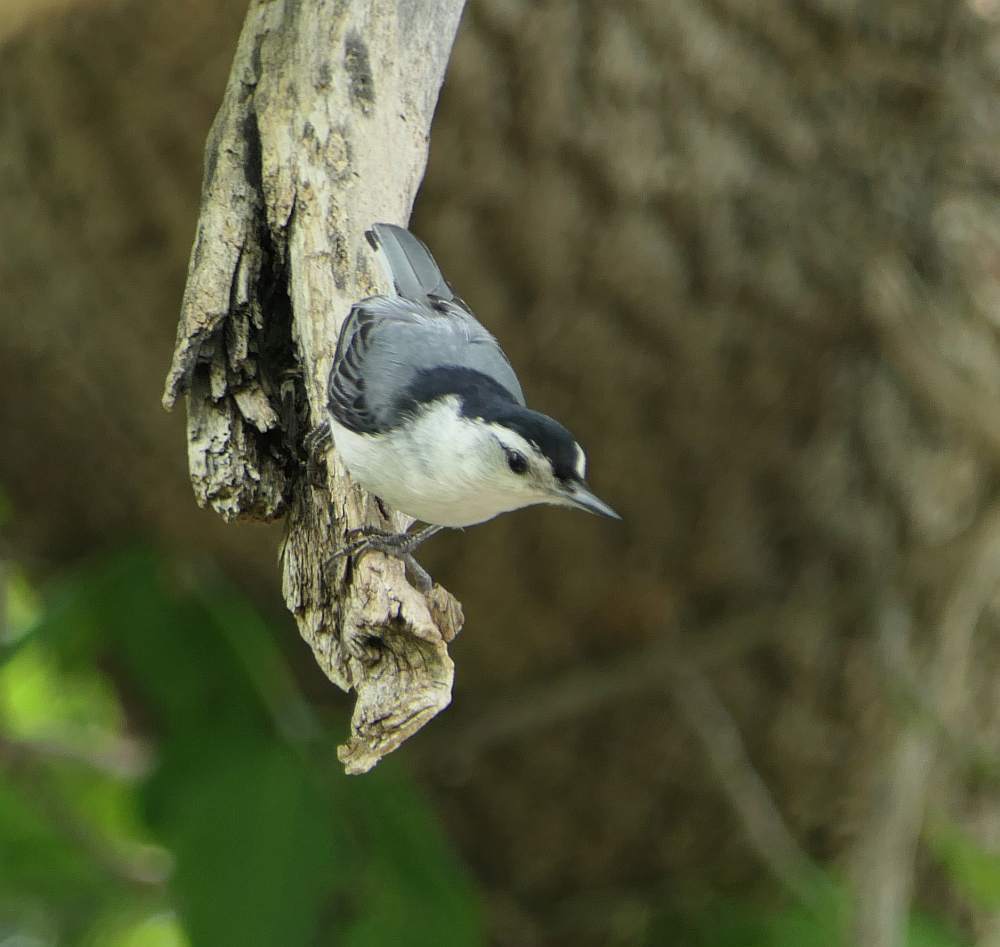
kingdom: Animalia
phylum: Chordata
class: Aves
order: Passeriformes
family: Sittidae
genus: Sitta
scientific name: Sitta carolinensis
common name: White-breasted nuthatch
